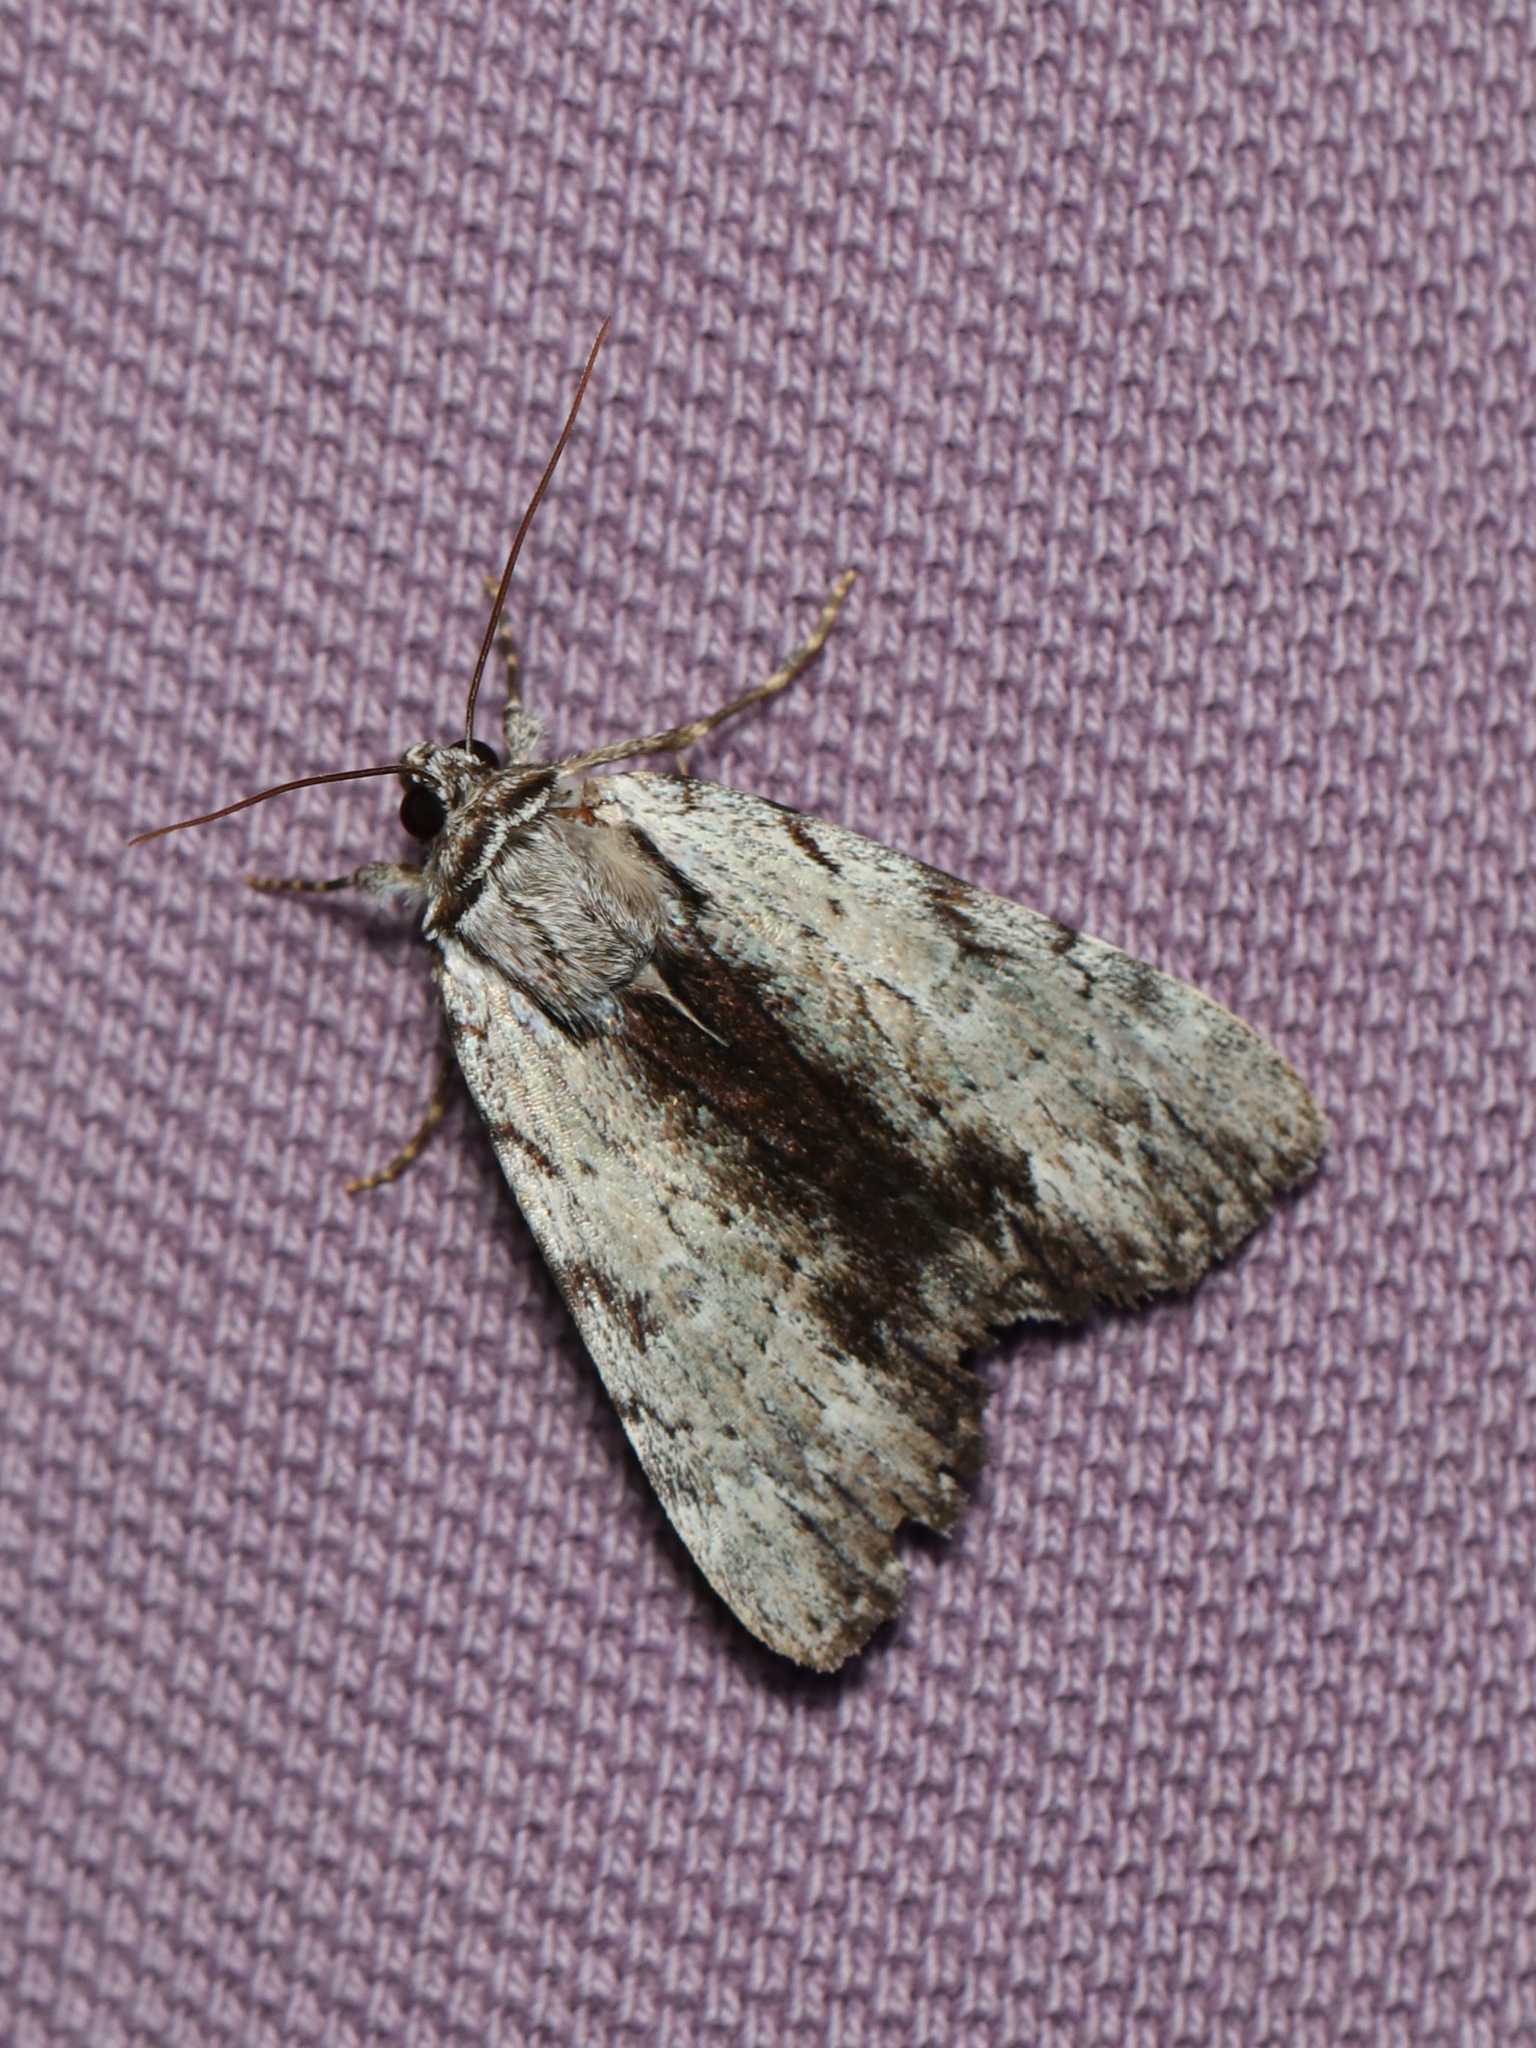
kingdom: Animalia
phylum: Arthropoda
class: Insecta
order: Lepidoptera
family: Erebidae
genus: Catocala
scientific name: Catocala gracilis
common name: Graceful underwing
